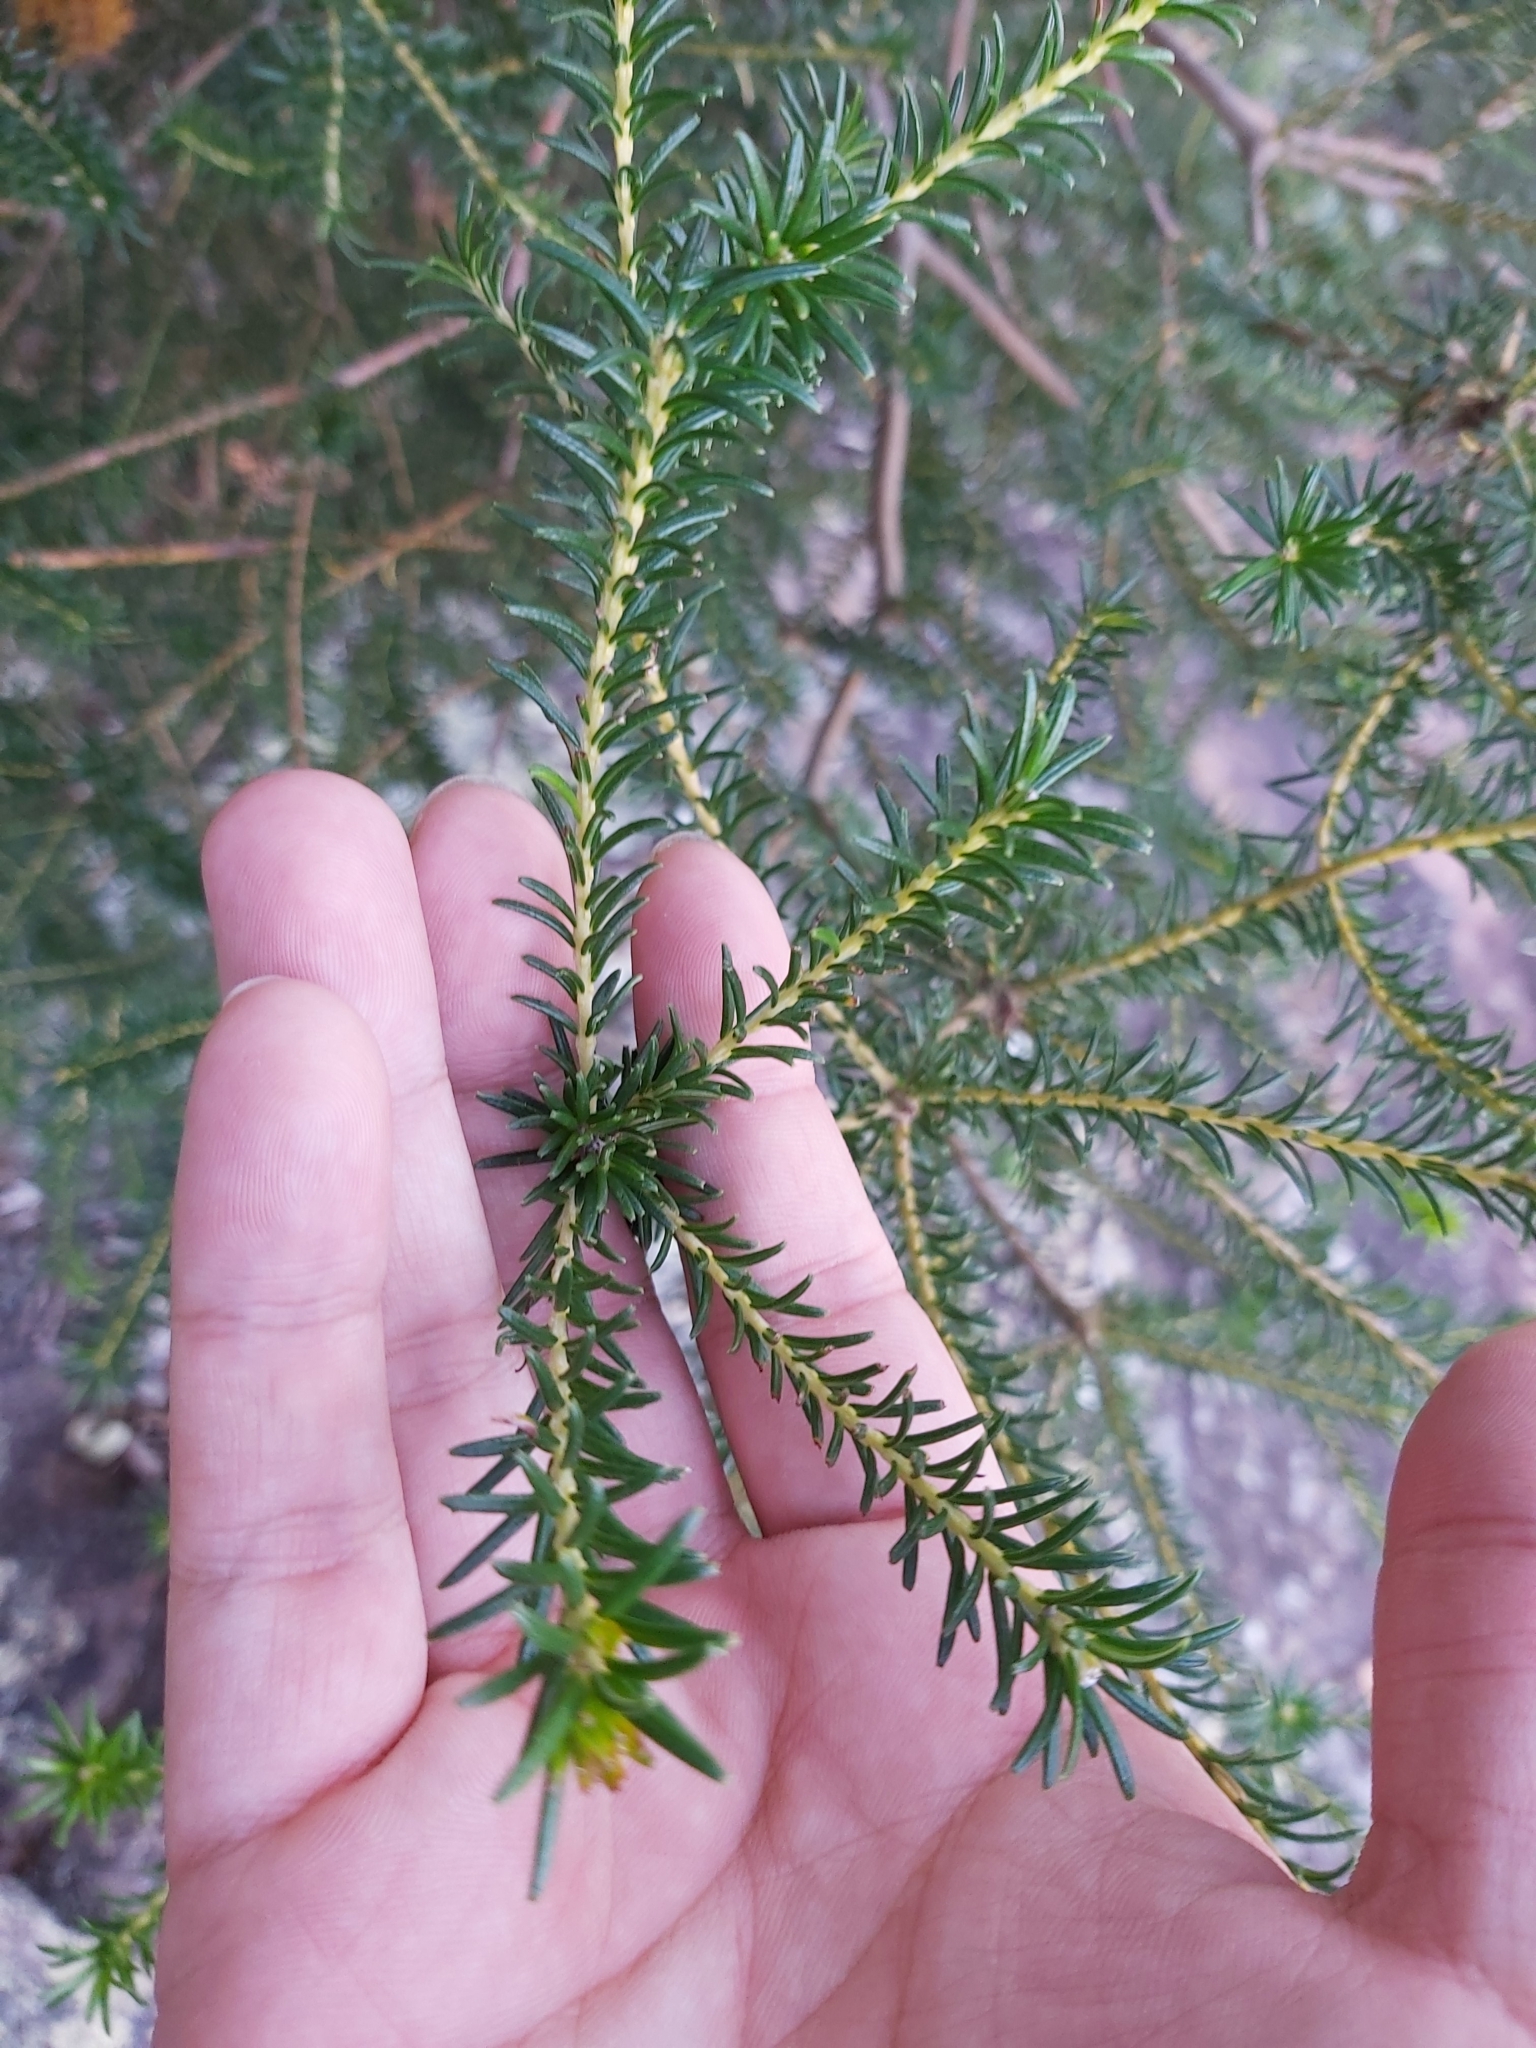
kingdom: Plantae
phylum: Tracheophyta
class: Magnoliopsida
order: Proteales
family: Proteaceae
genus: Banksia
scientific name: Banksia ericifolia
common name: Heath-leaf banksia
